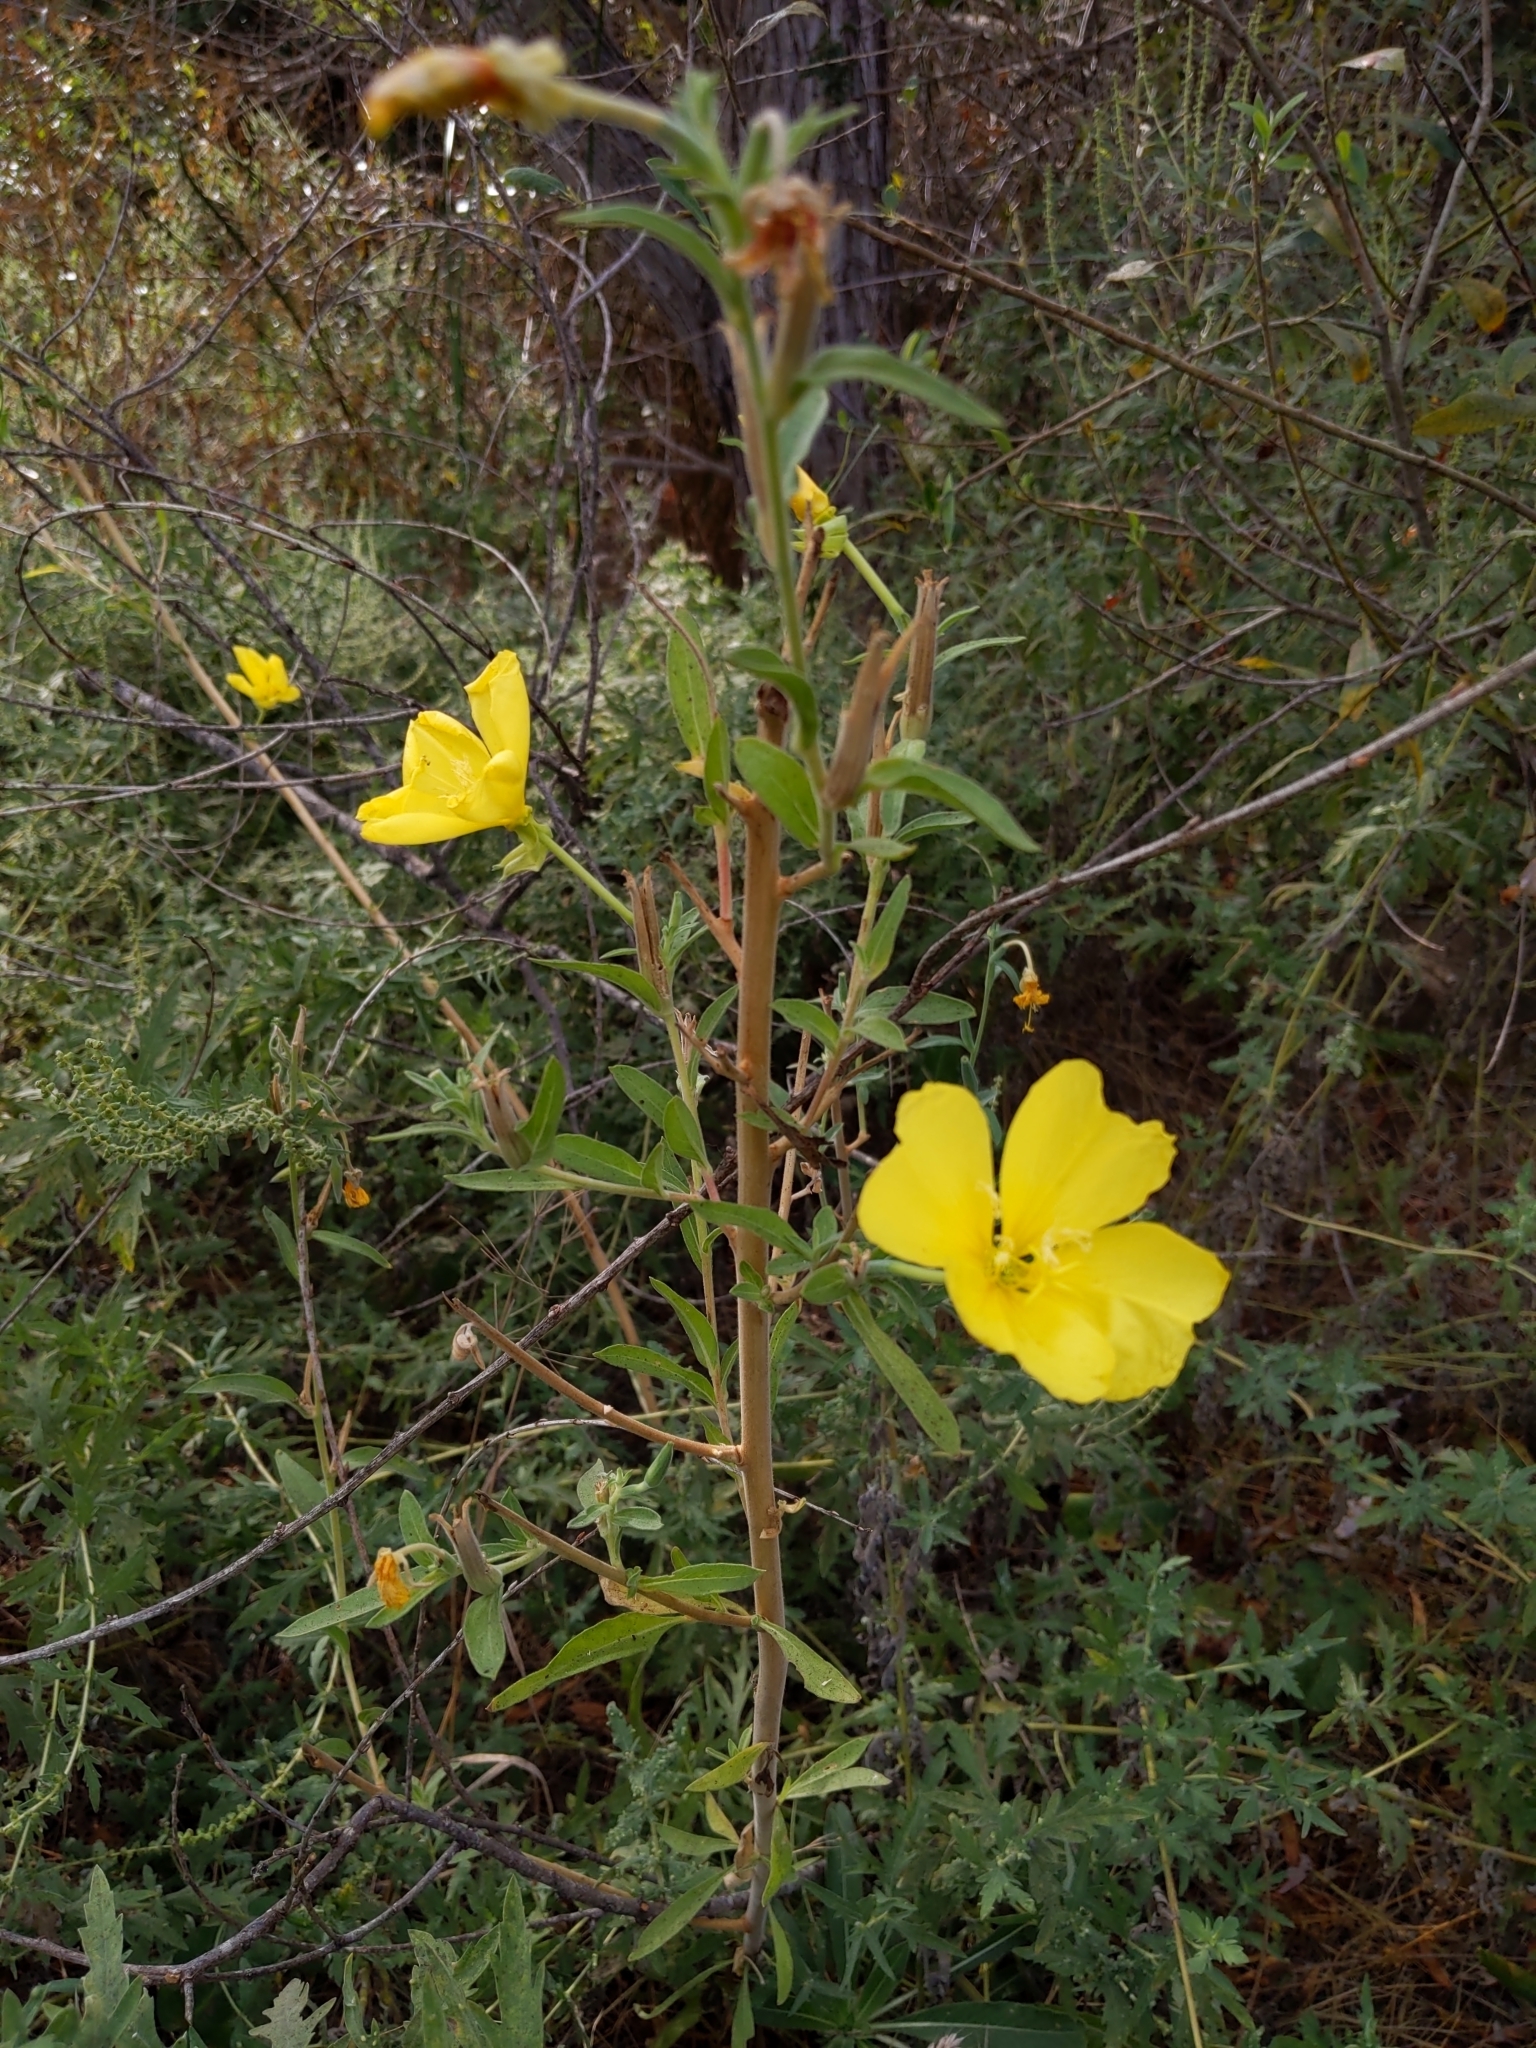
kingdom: Plantae
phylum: Tracheophyta
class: Magnoliopsida
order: Myrtales
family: Onagraceae
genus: Oenothera
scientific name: Oenothera elata
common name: Hooker's evening-primrose
